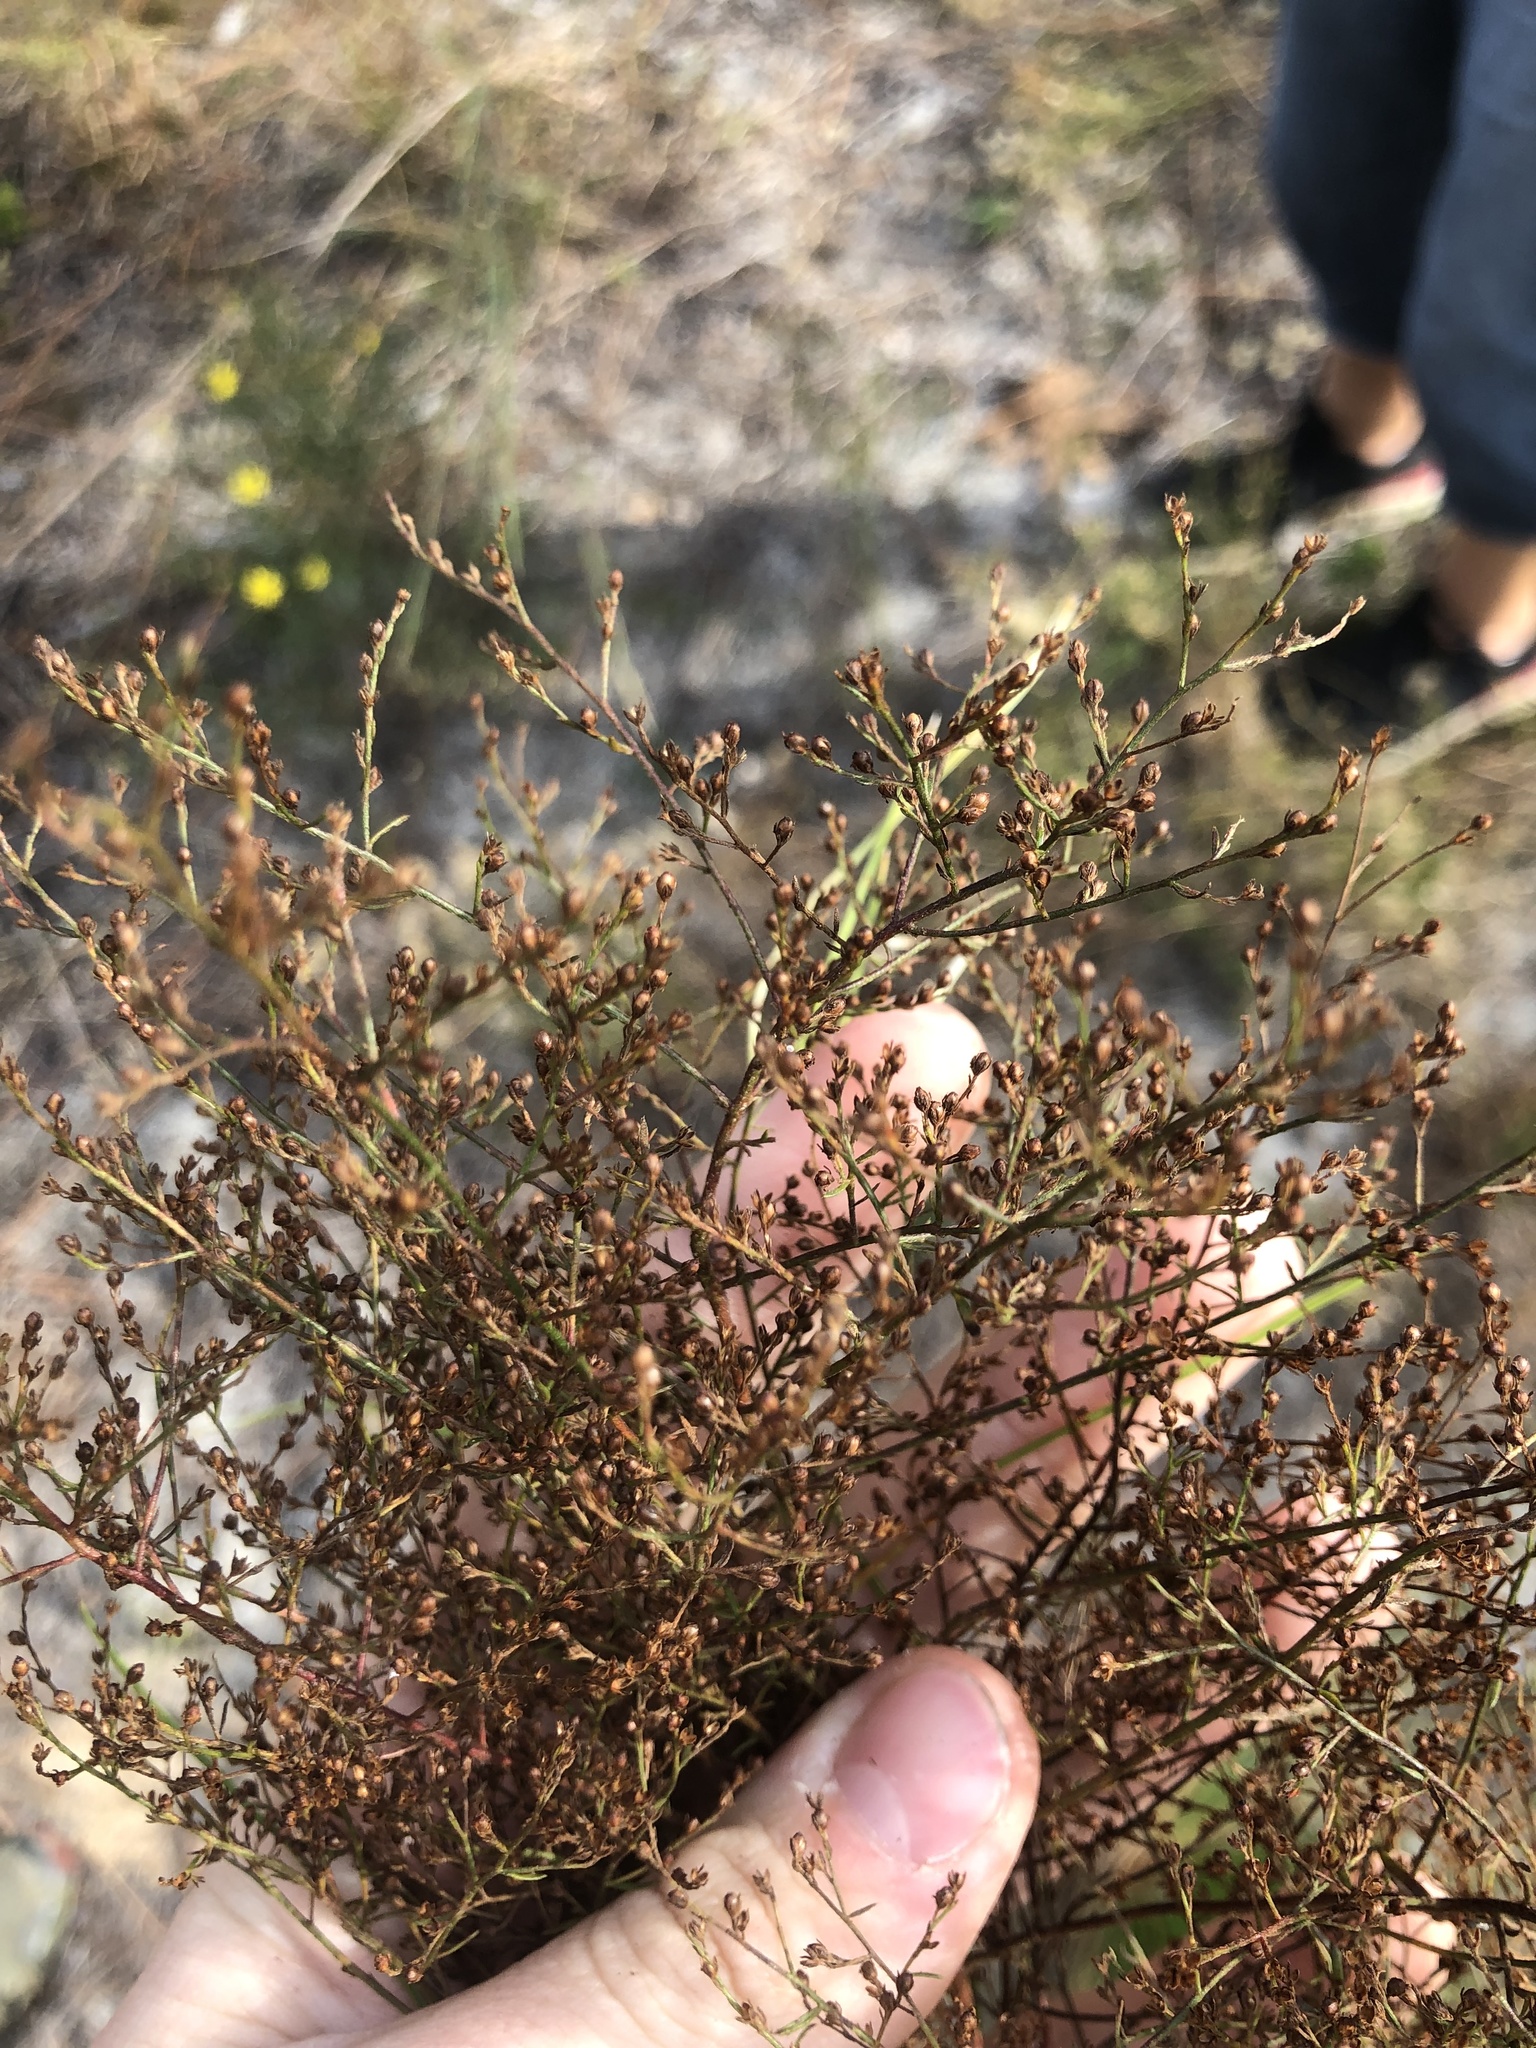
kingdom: Plantae
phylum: Tracheophyta
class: Magnoliopsida
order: Malvales
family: Cistaceae
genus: Lechea
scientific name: Lechea pulchella
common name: Leggett's pinweed
